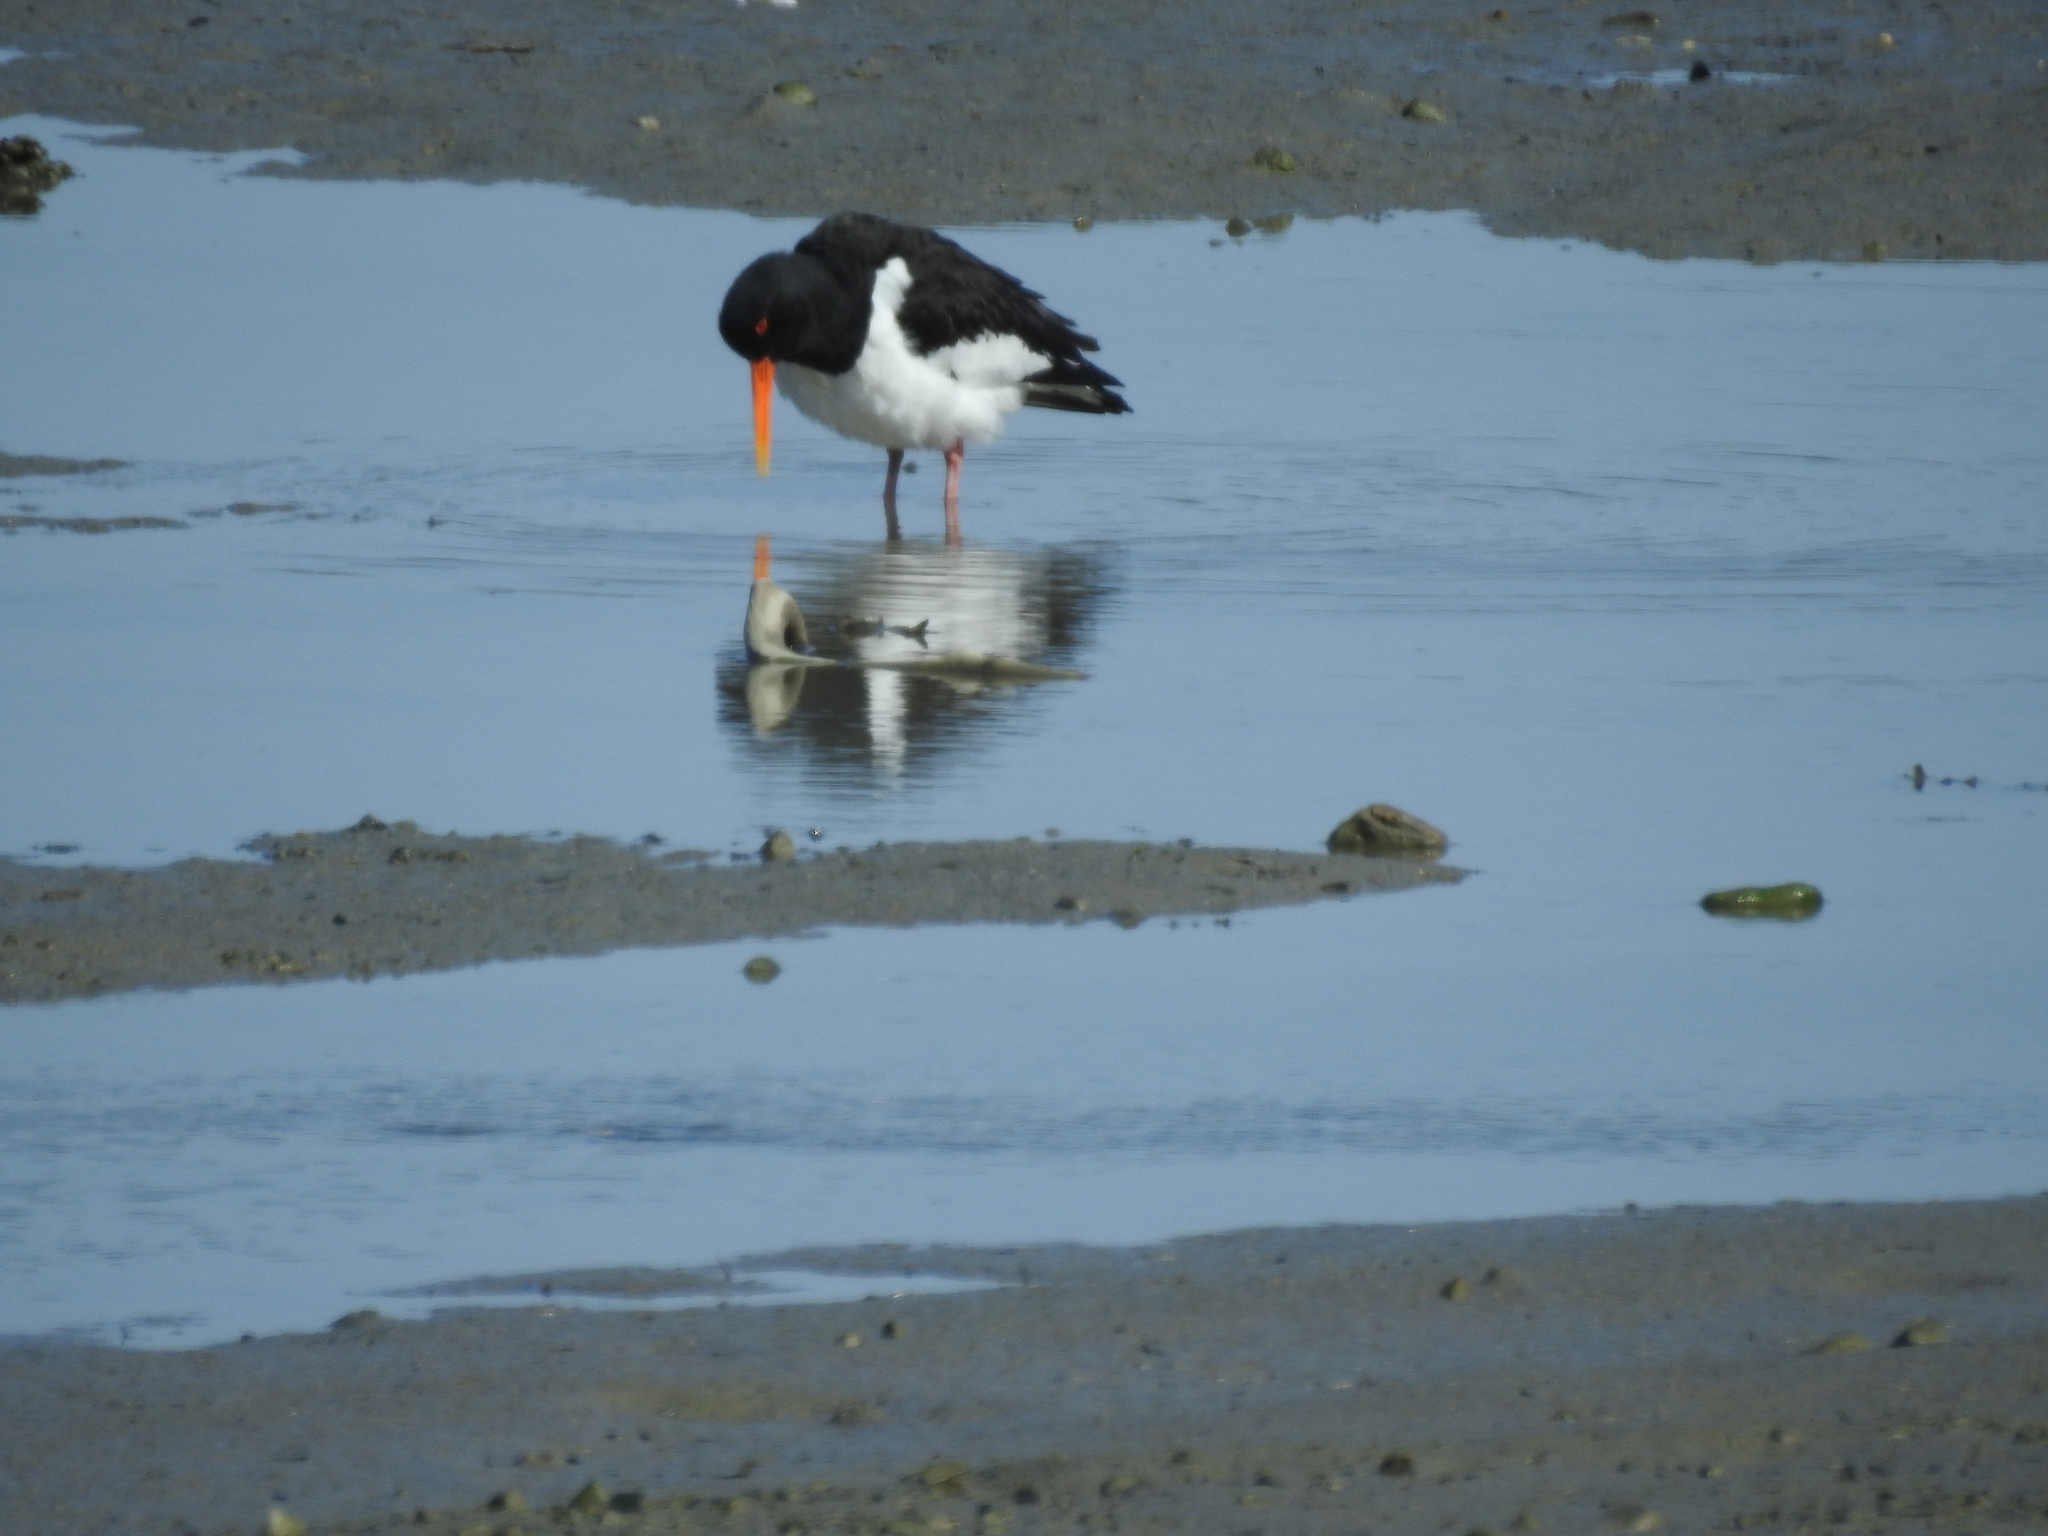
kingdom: Animalia
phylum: Chordata
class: Aves
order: Charadriiformes
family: Haematopodidae
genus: Haematopus
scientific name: Haematopus ostralegus
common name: Eurasian oystercatcher
